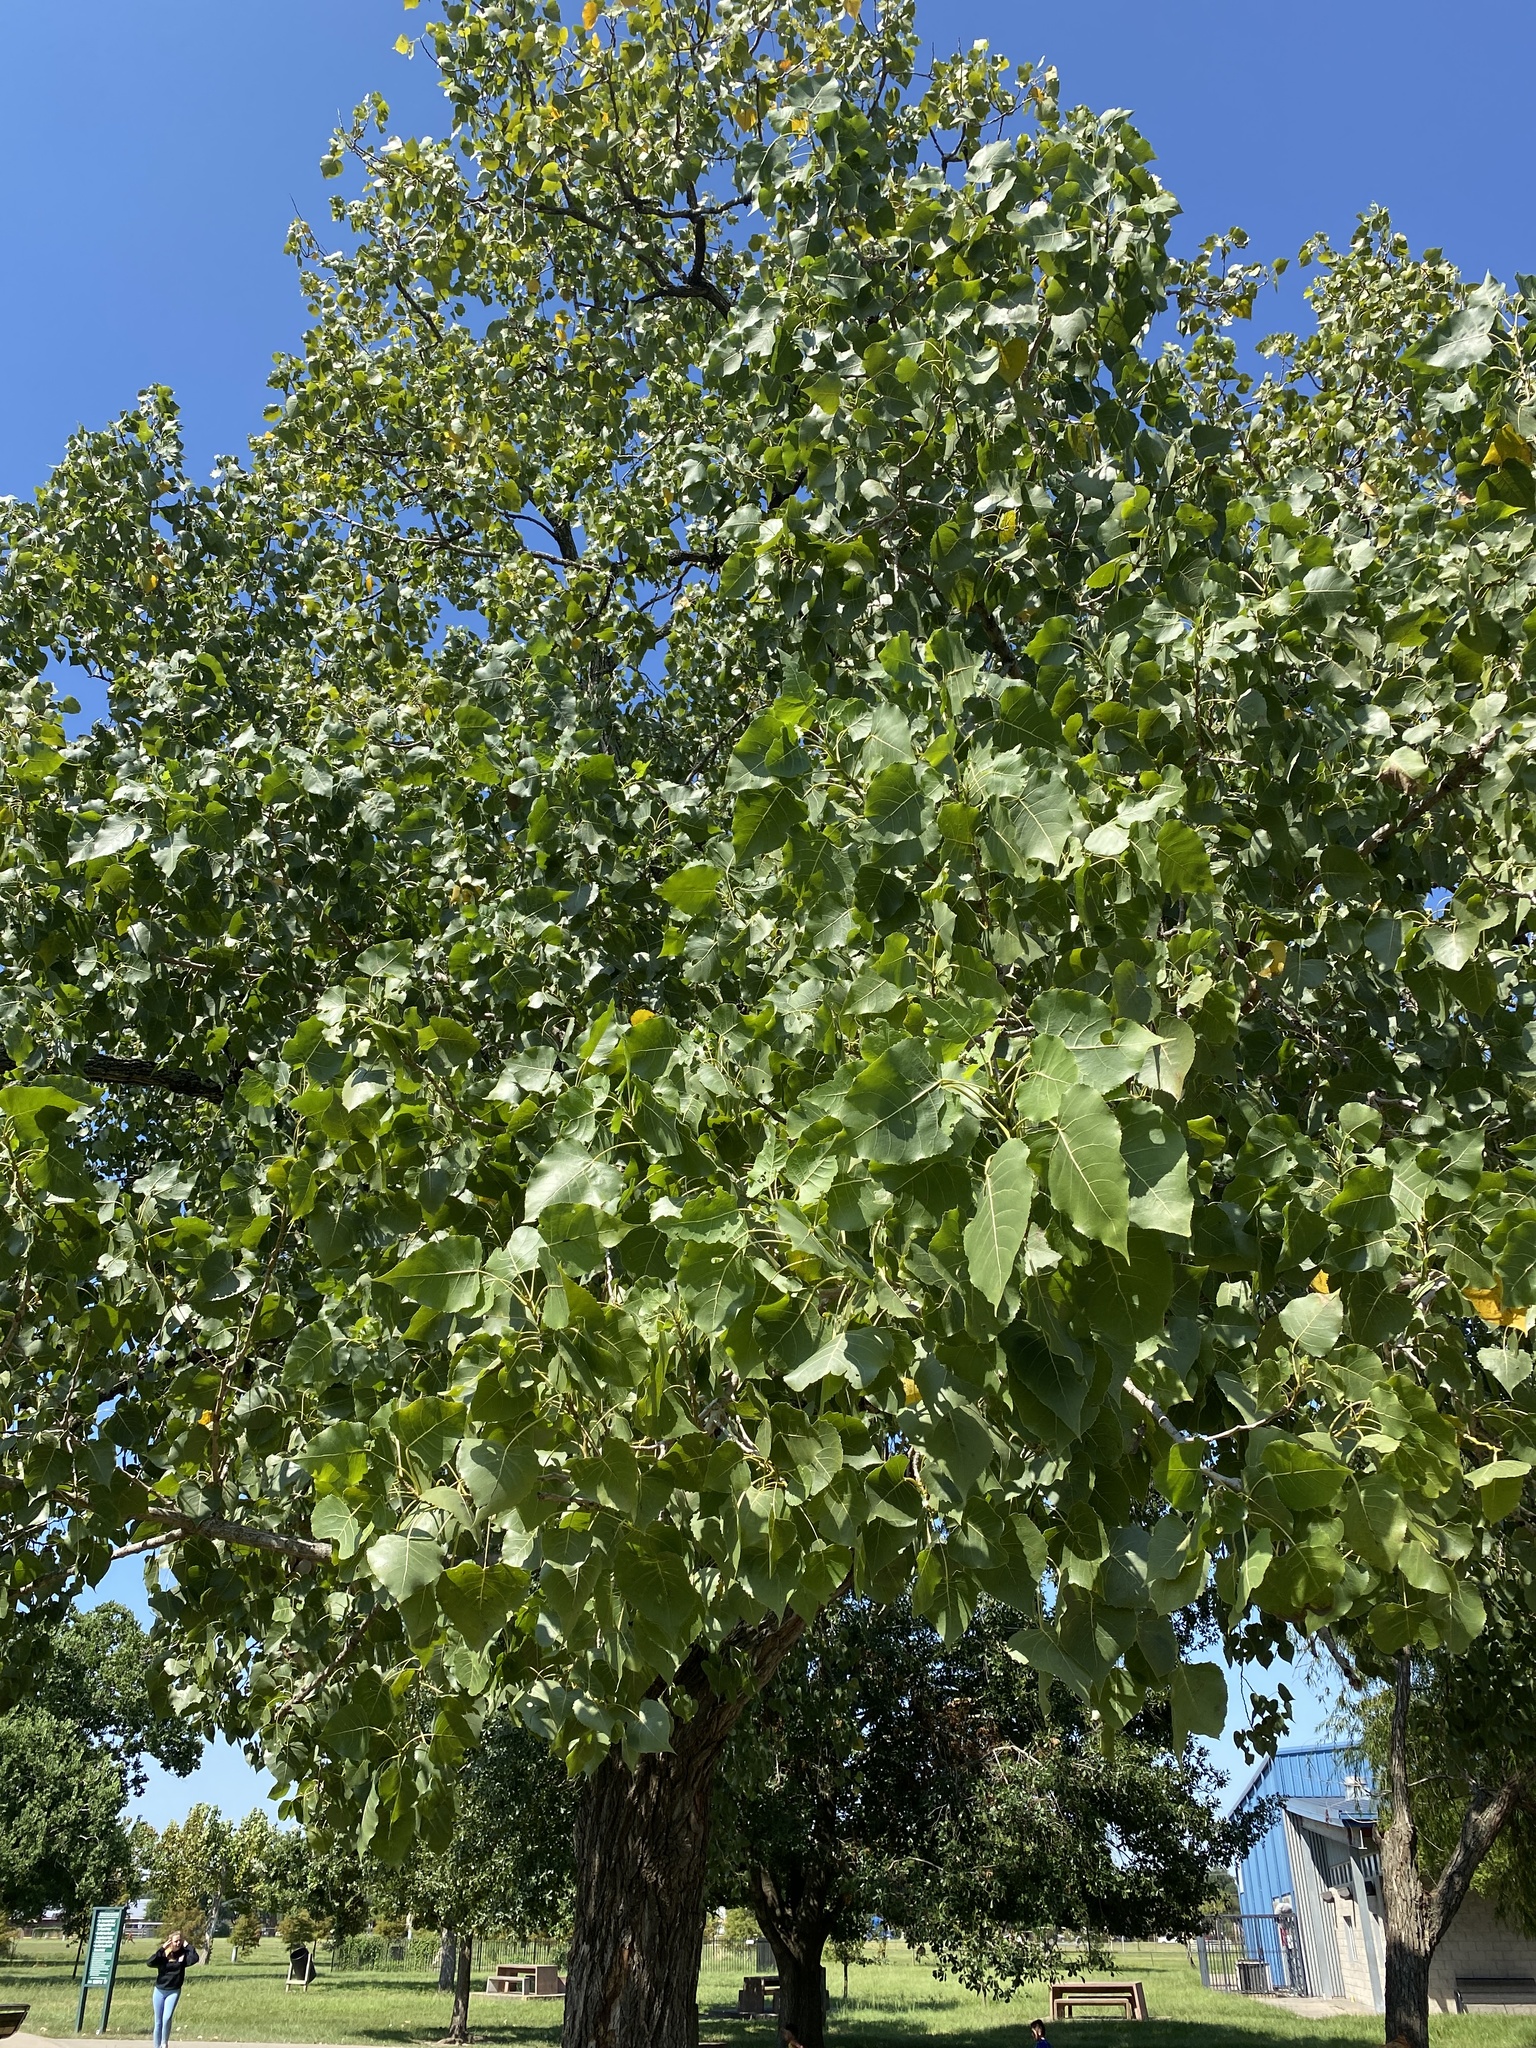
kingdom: Plantae
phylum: Tracheophyta
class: Magnoliopsida
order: Malpighiales
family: Salicaceae
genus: Populus
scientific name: Populus deltoides
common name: Eastern cottonwood
